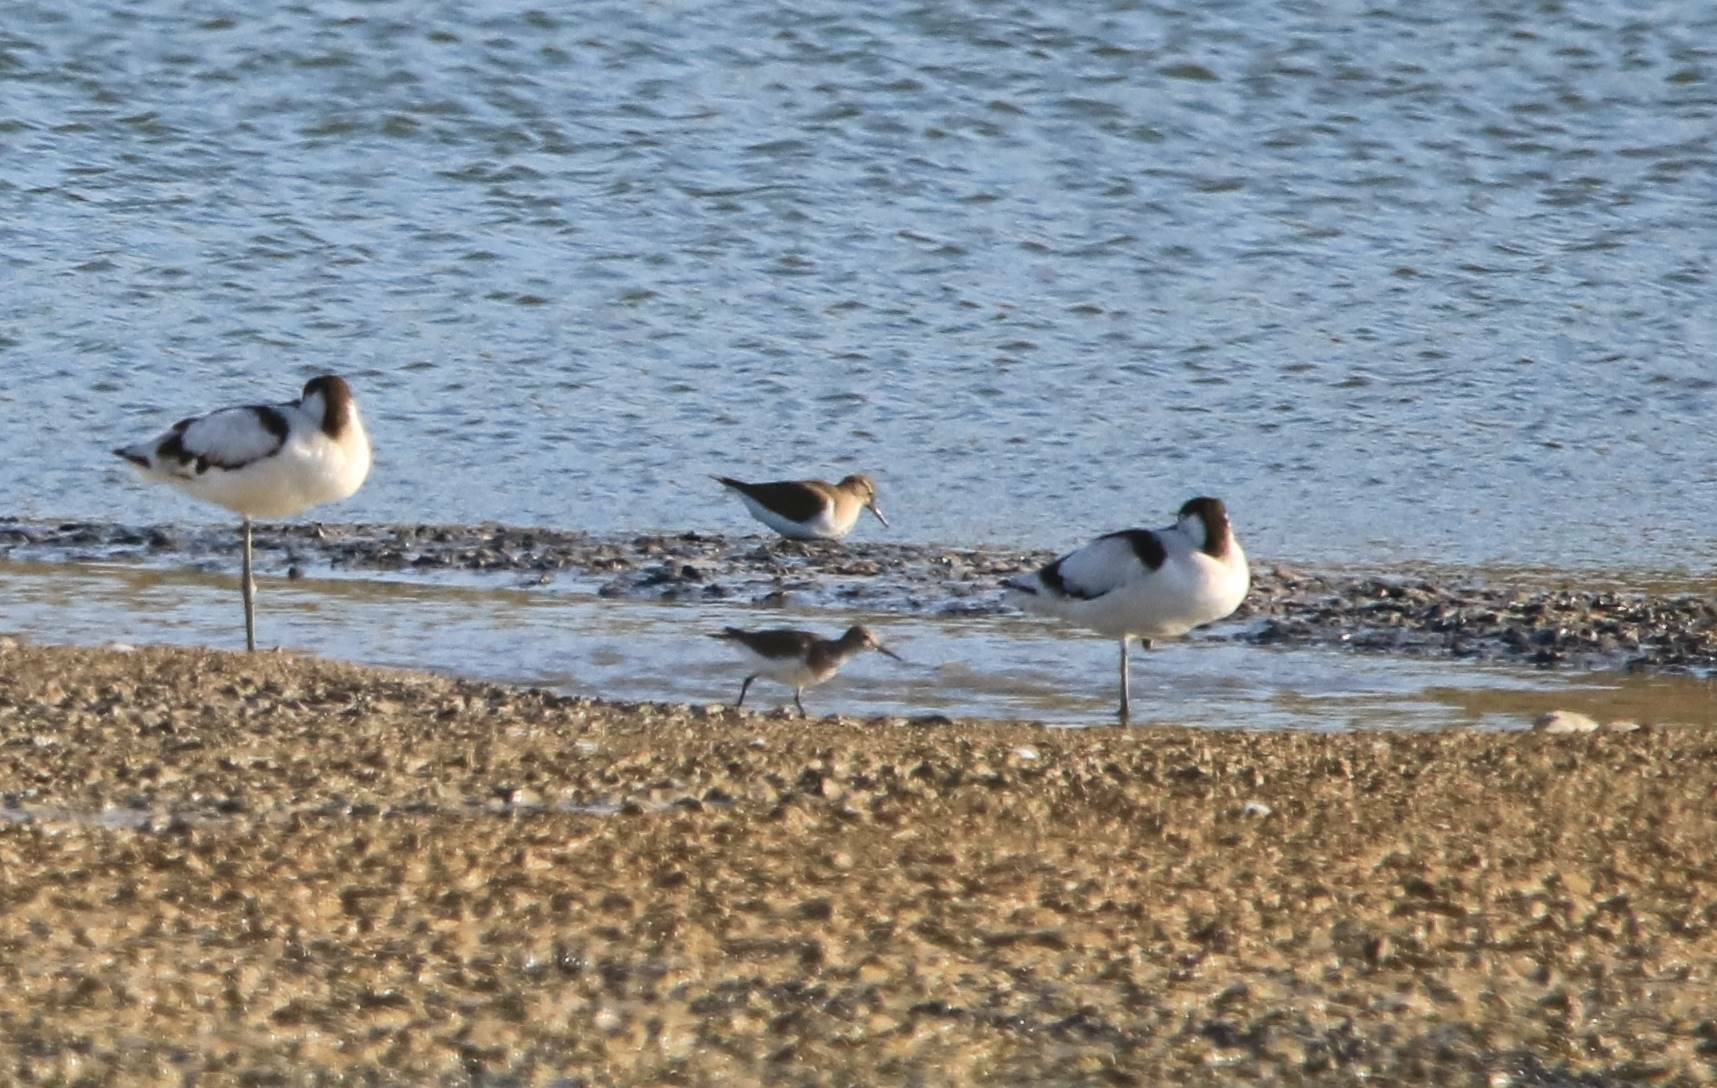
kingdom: Animalia
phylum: Chordata
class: Aves
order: Charadriiformes
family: Recurvirostridae
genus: Recurvirostra
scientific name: Recurvirostra avosetta
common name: Pied avocet
